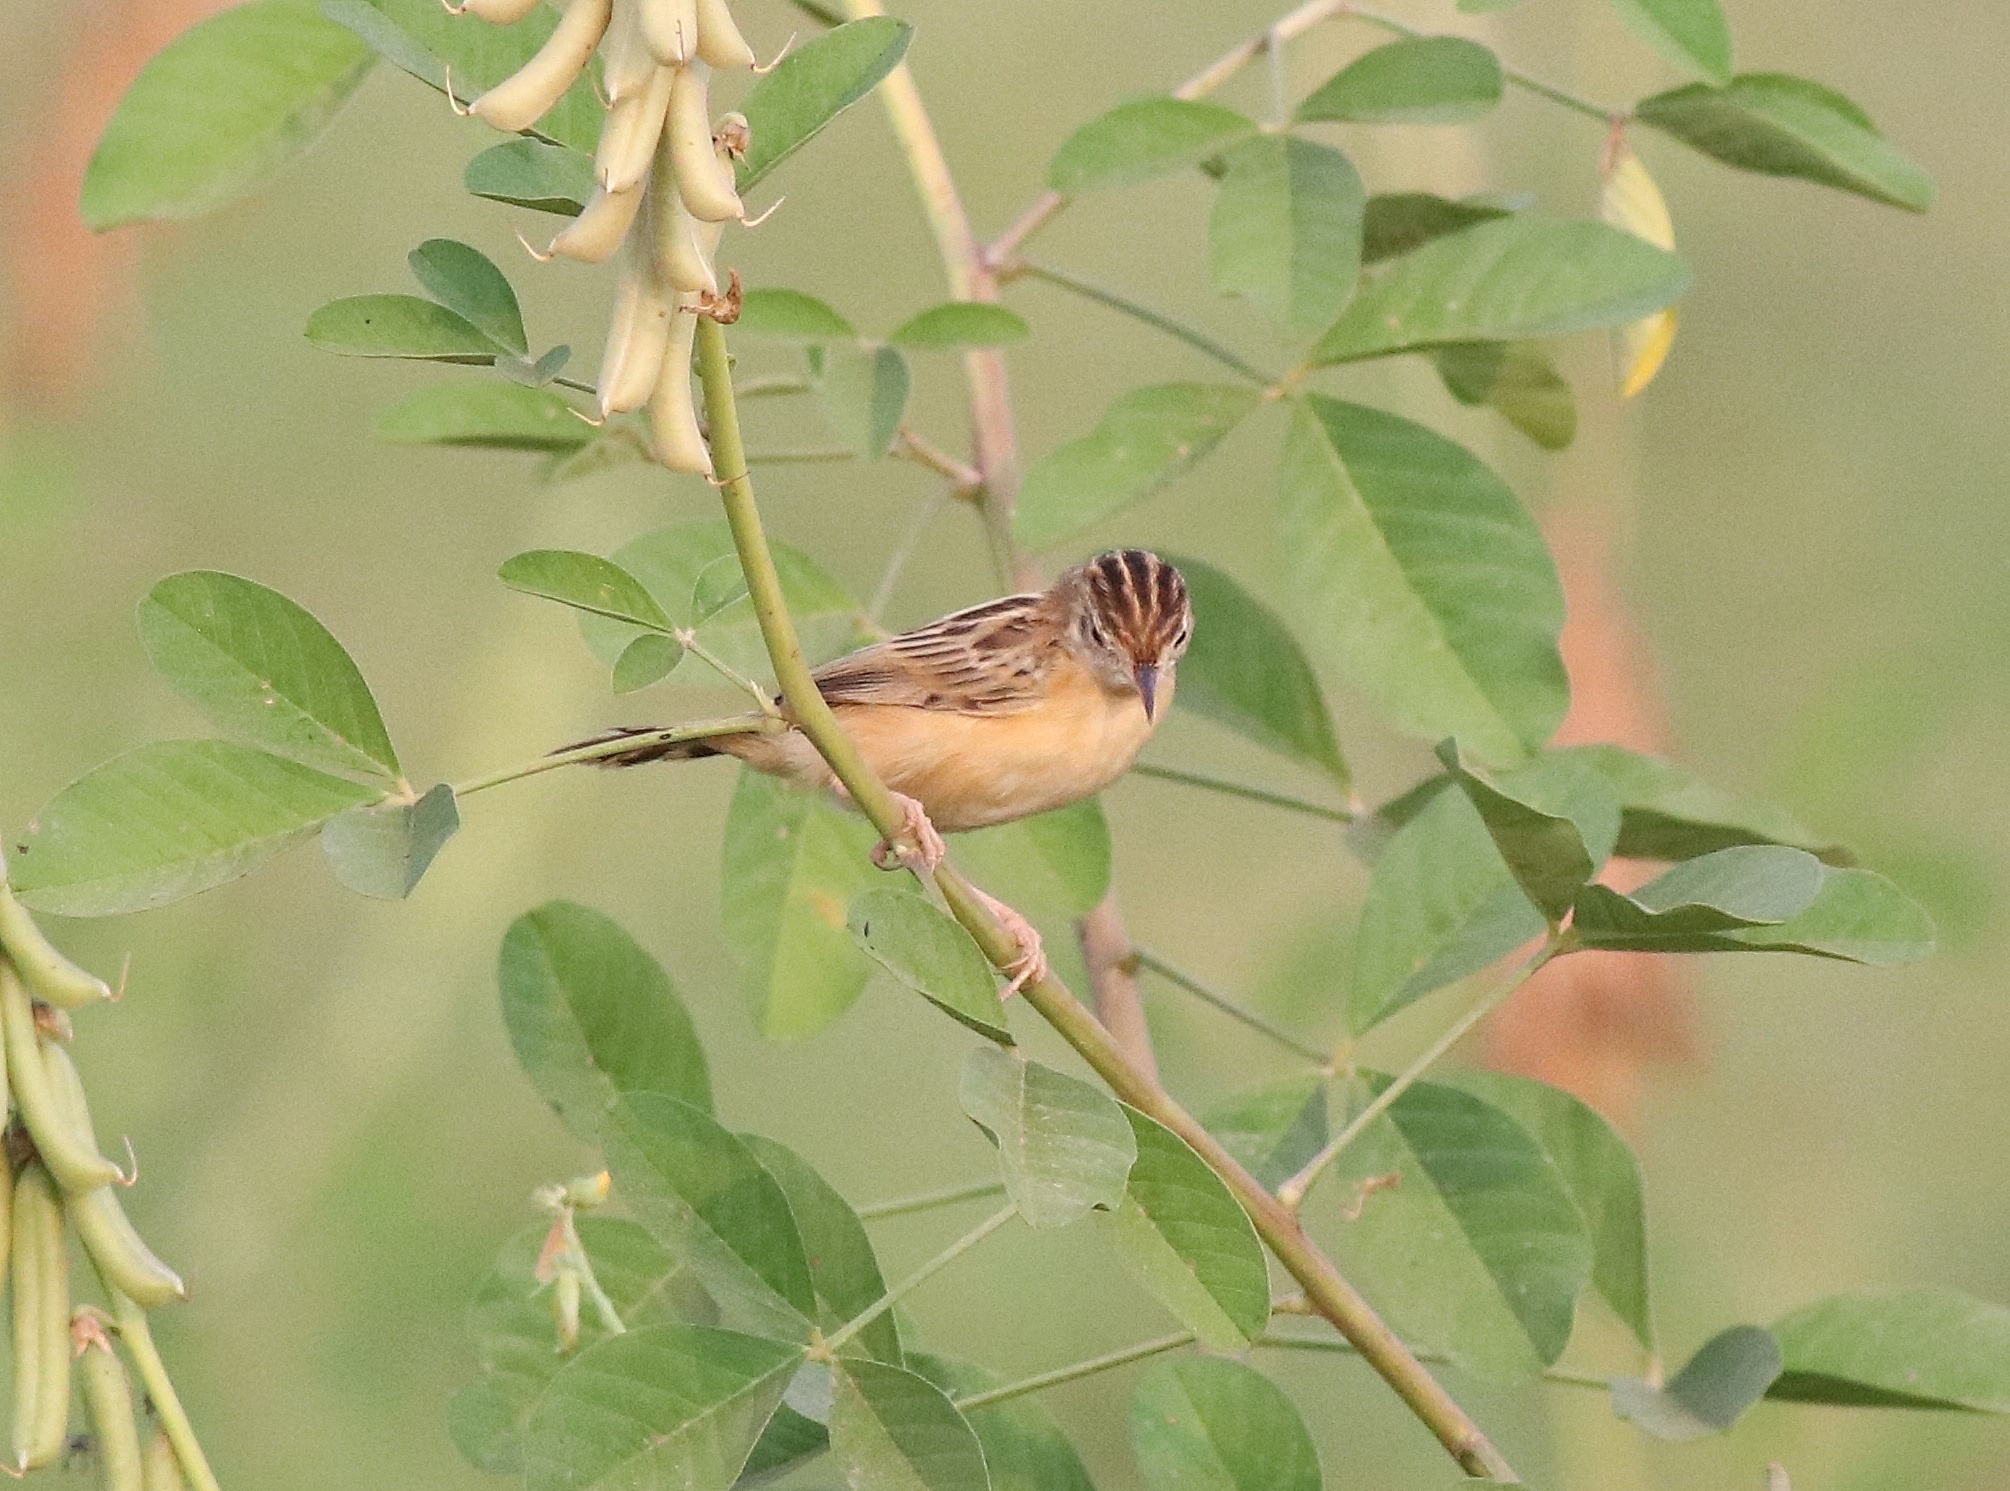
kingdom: Animalia
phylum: Chordata
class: Aves
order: Passeriformes
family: Cisticolidae
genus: Cisticola
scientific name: Cisticola juncidis
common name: Zitting cisticola
